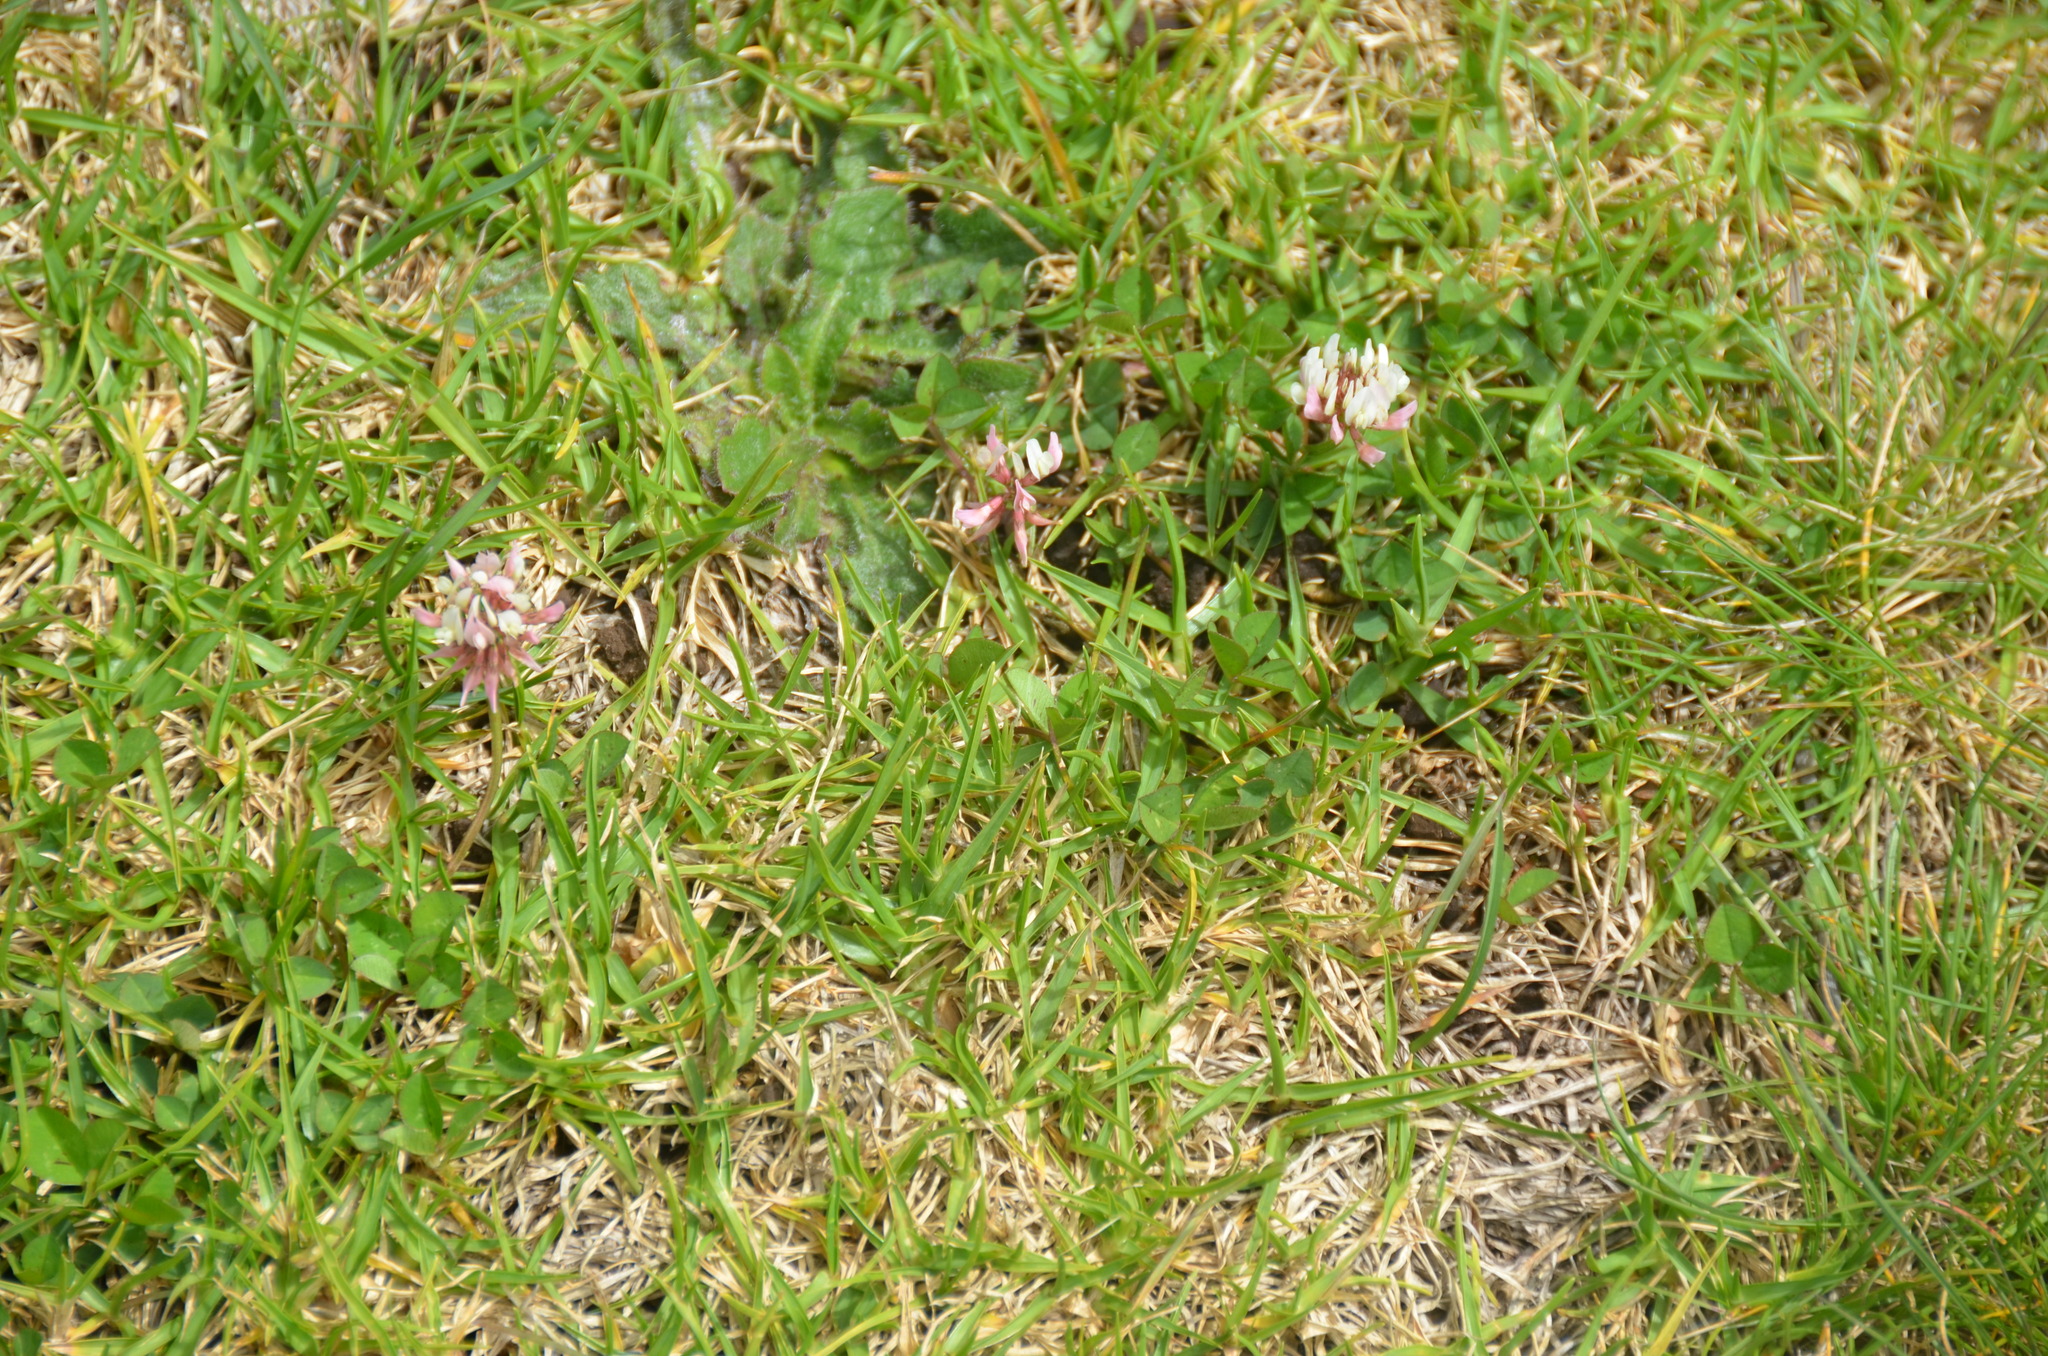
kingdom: Plantae
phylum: Tracheophyta
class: Magnoliopsida
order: Fabales
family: Fabaceae
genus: Trifolium
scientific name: Trifolium repens
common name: White clover
